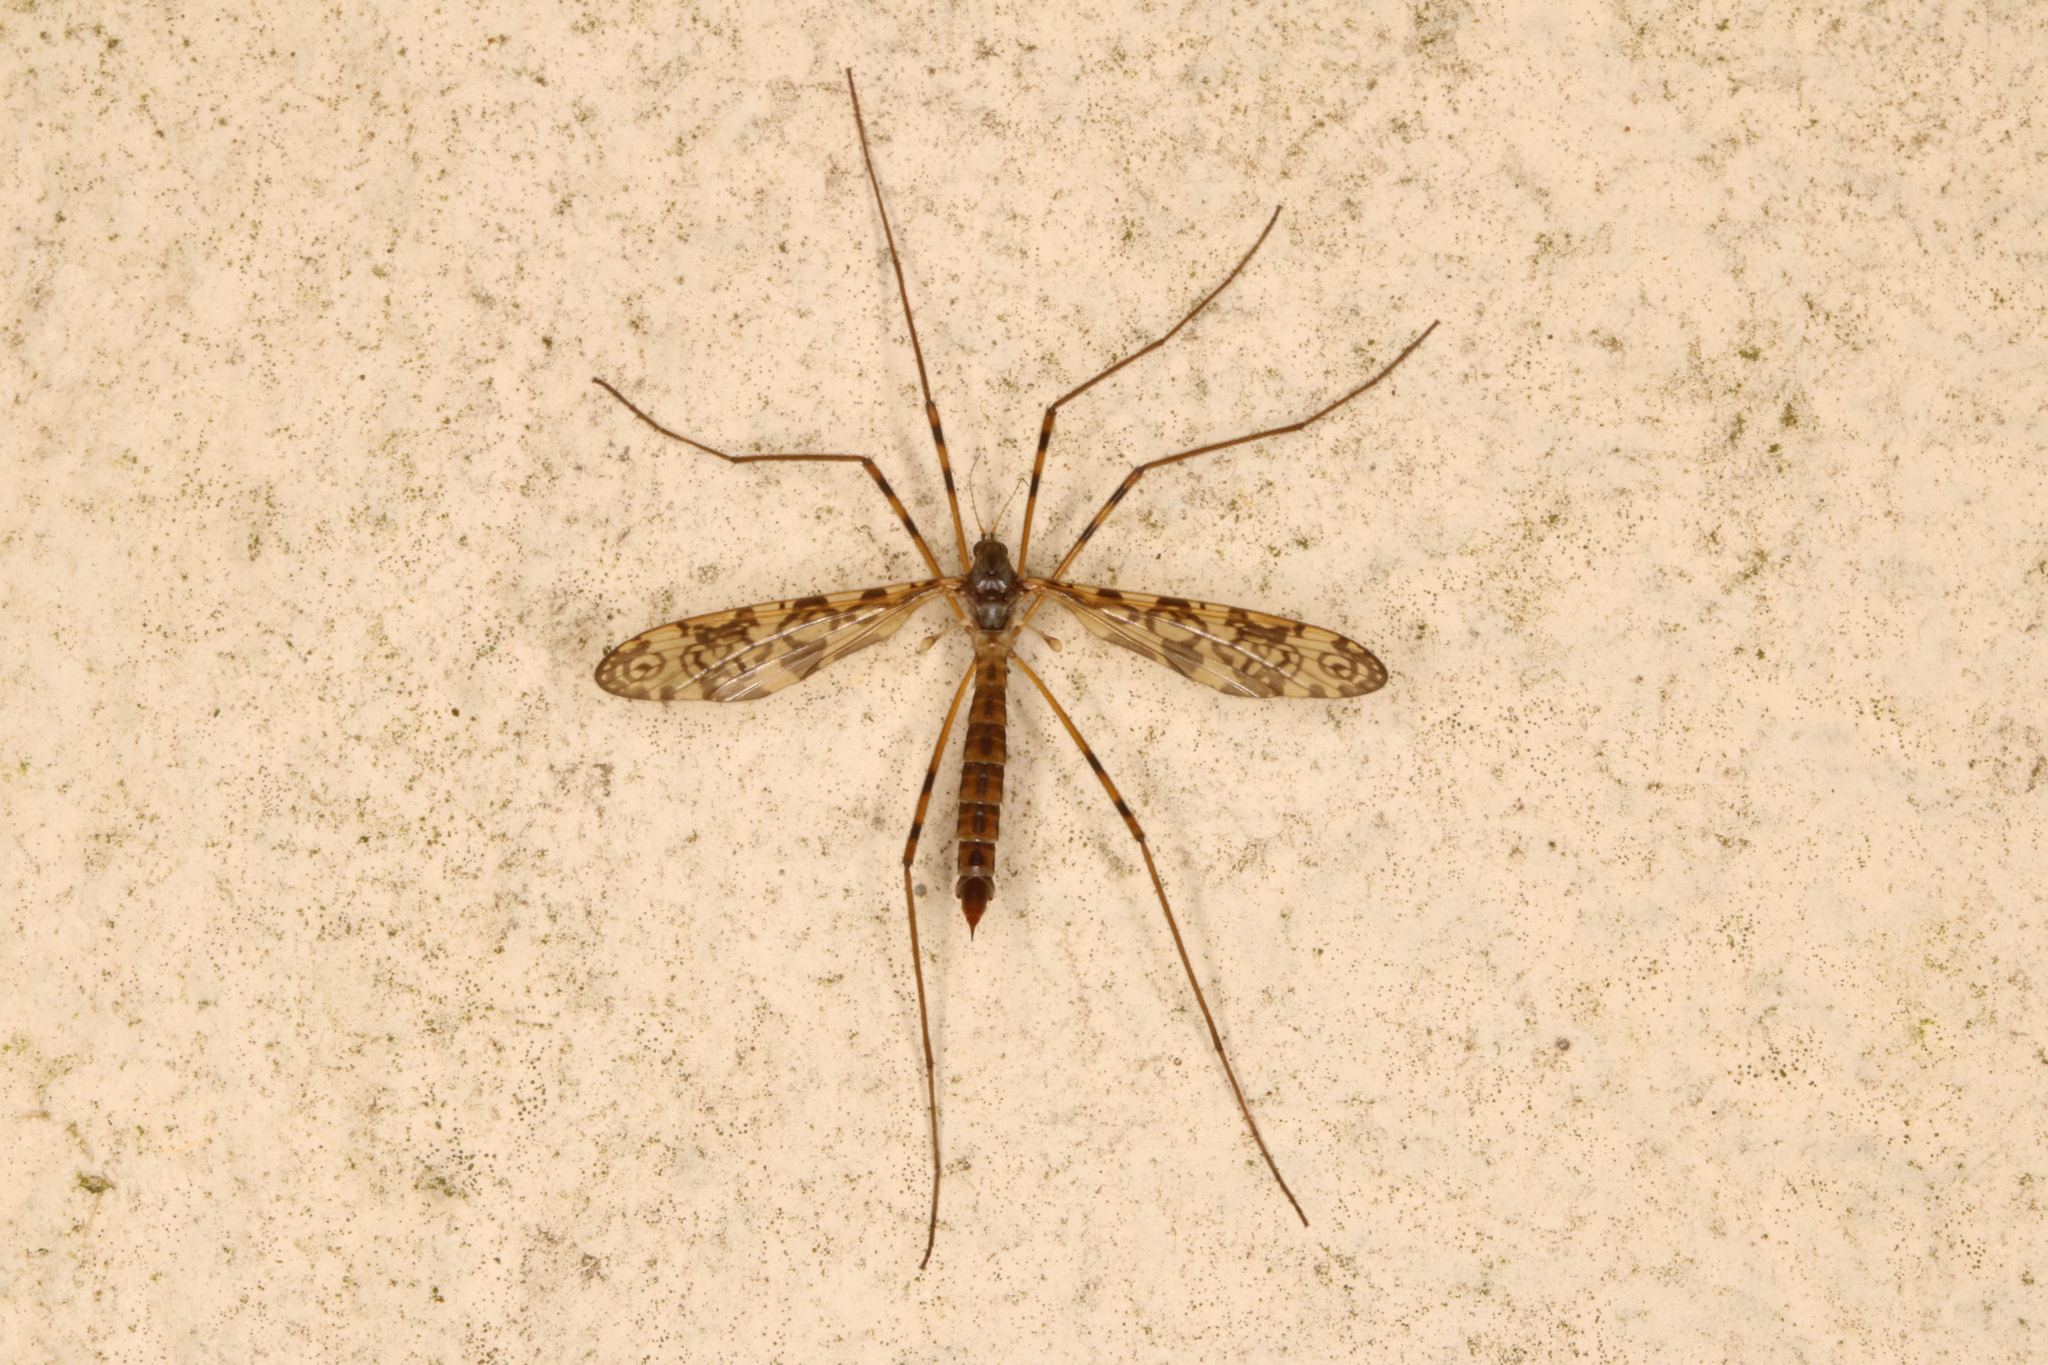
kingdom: Animalia
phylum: Arthropoda
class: Insecta
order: Diptera
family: Limoniidae
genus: Epiphragma
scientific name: Epiphragma ocellare
